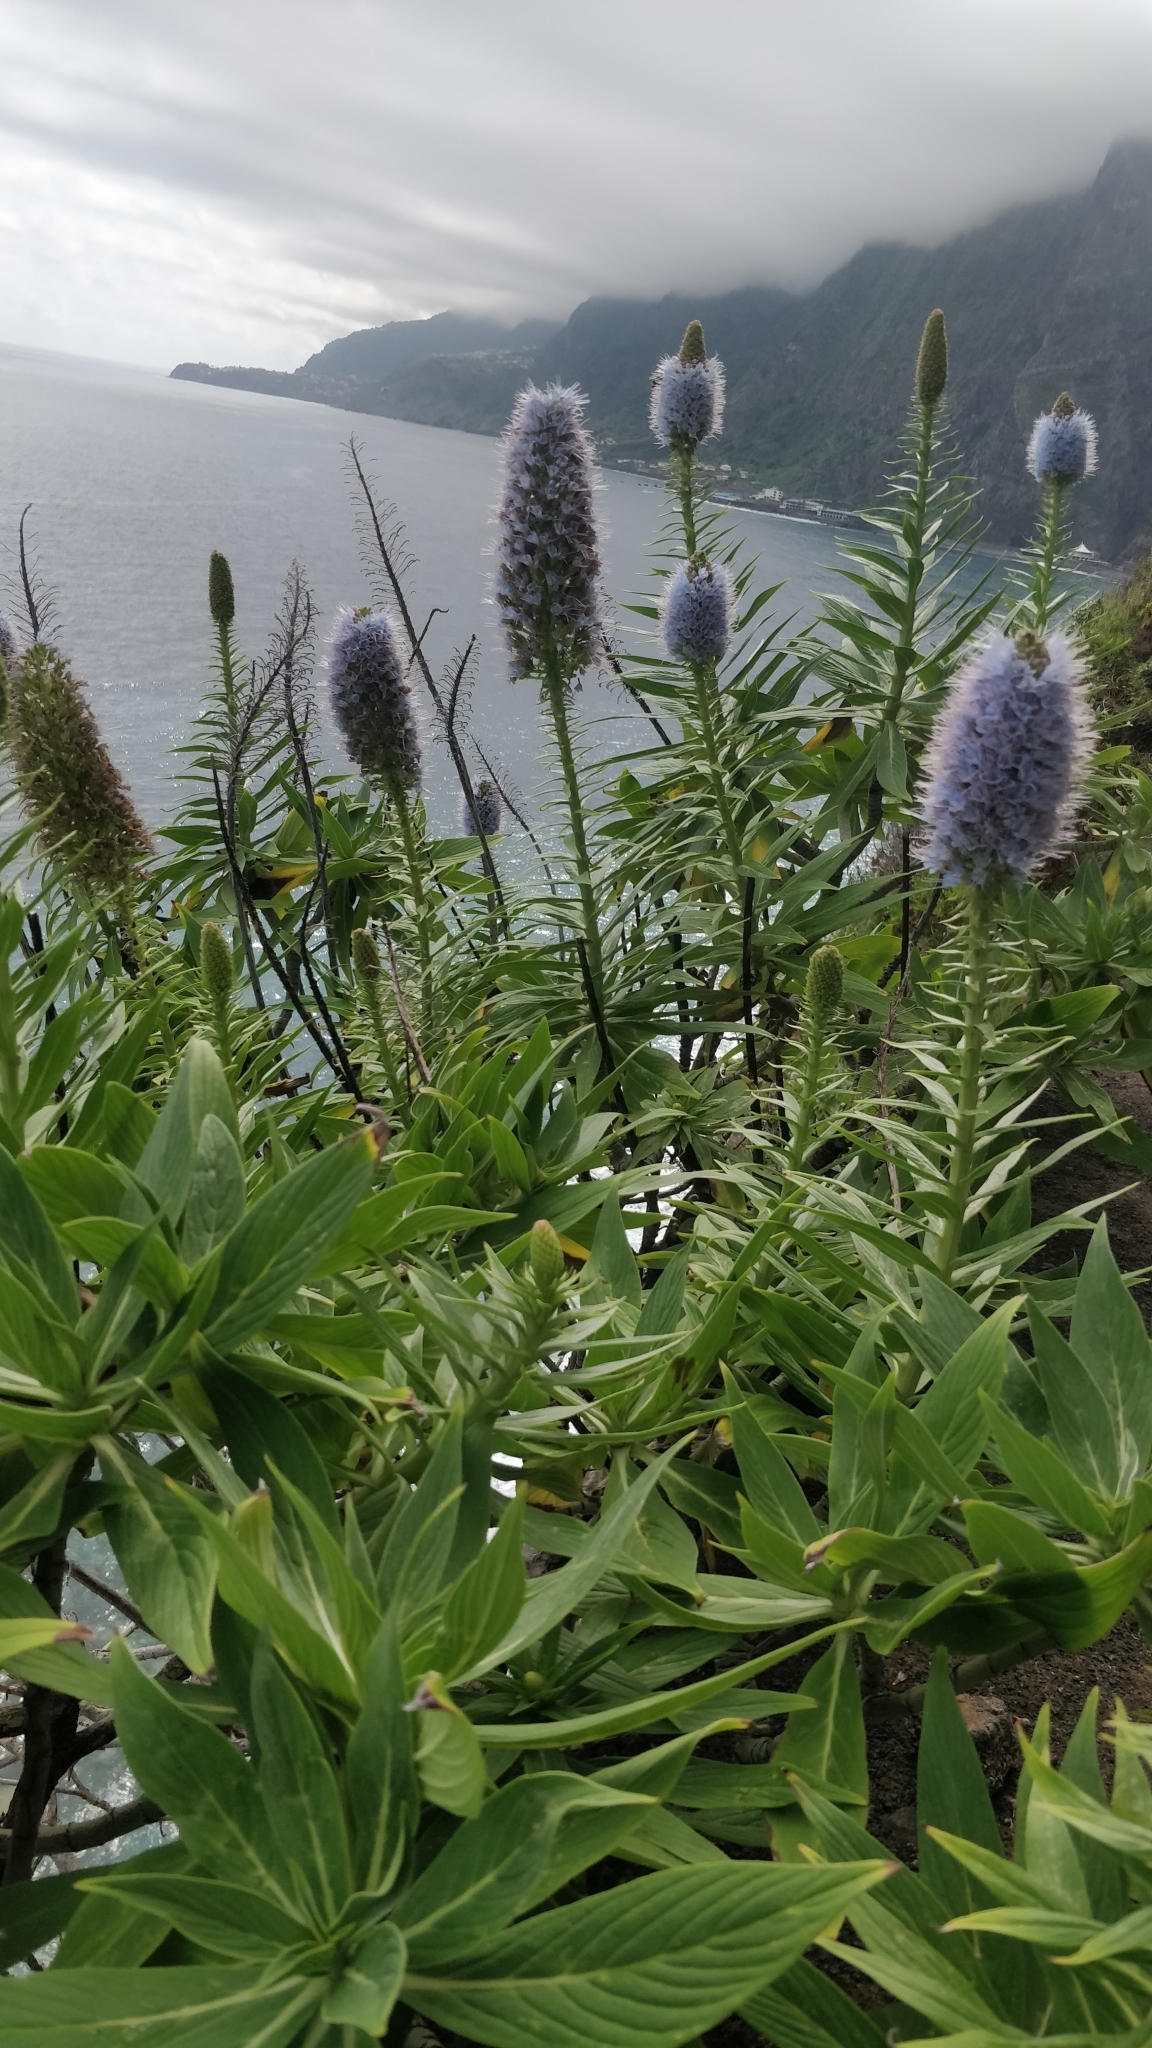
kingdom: Plantae
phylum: Tracheophyta
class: Magnoliopsida
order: Boraginales
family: Boraginaceae
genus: Echium
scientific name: Echium nervosum
